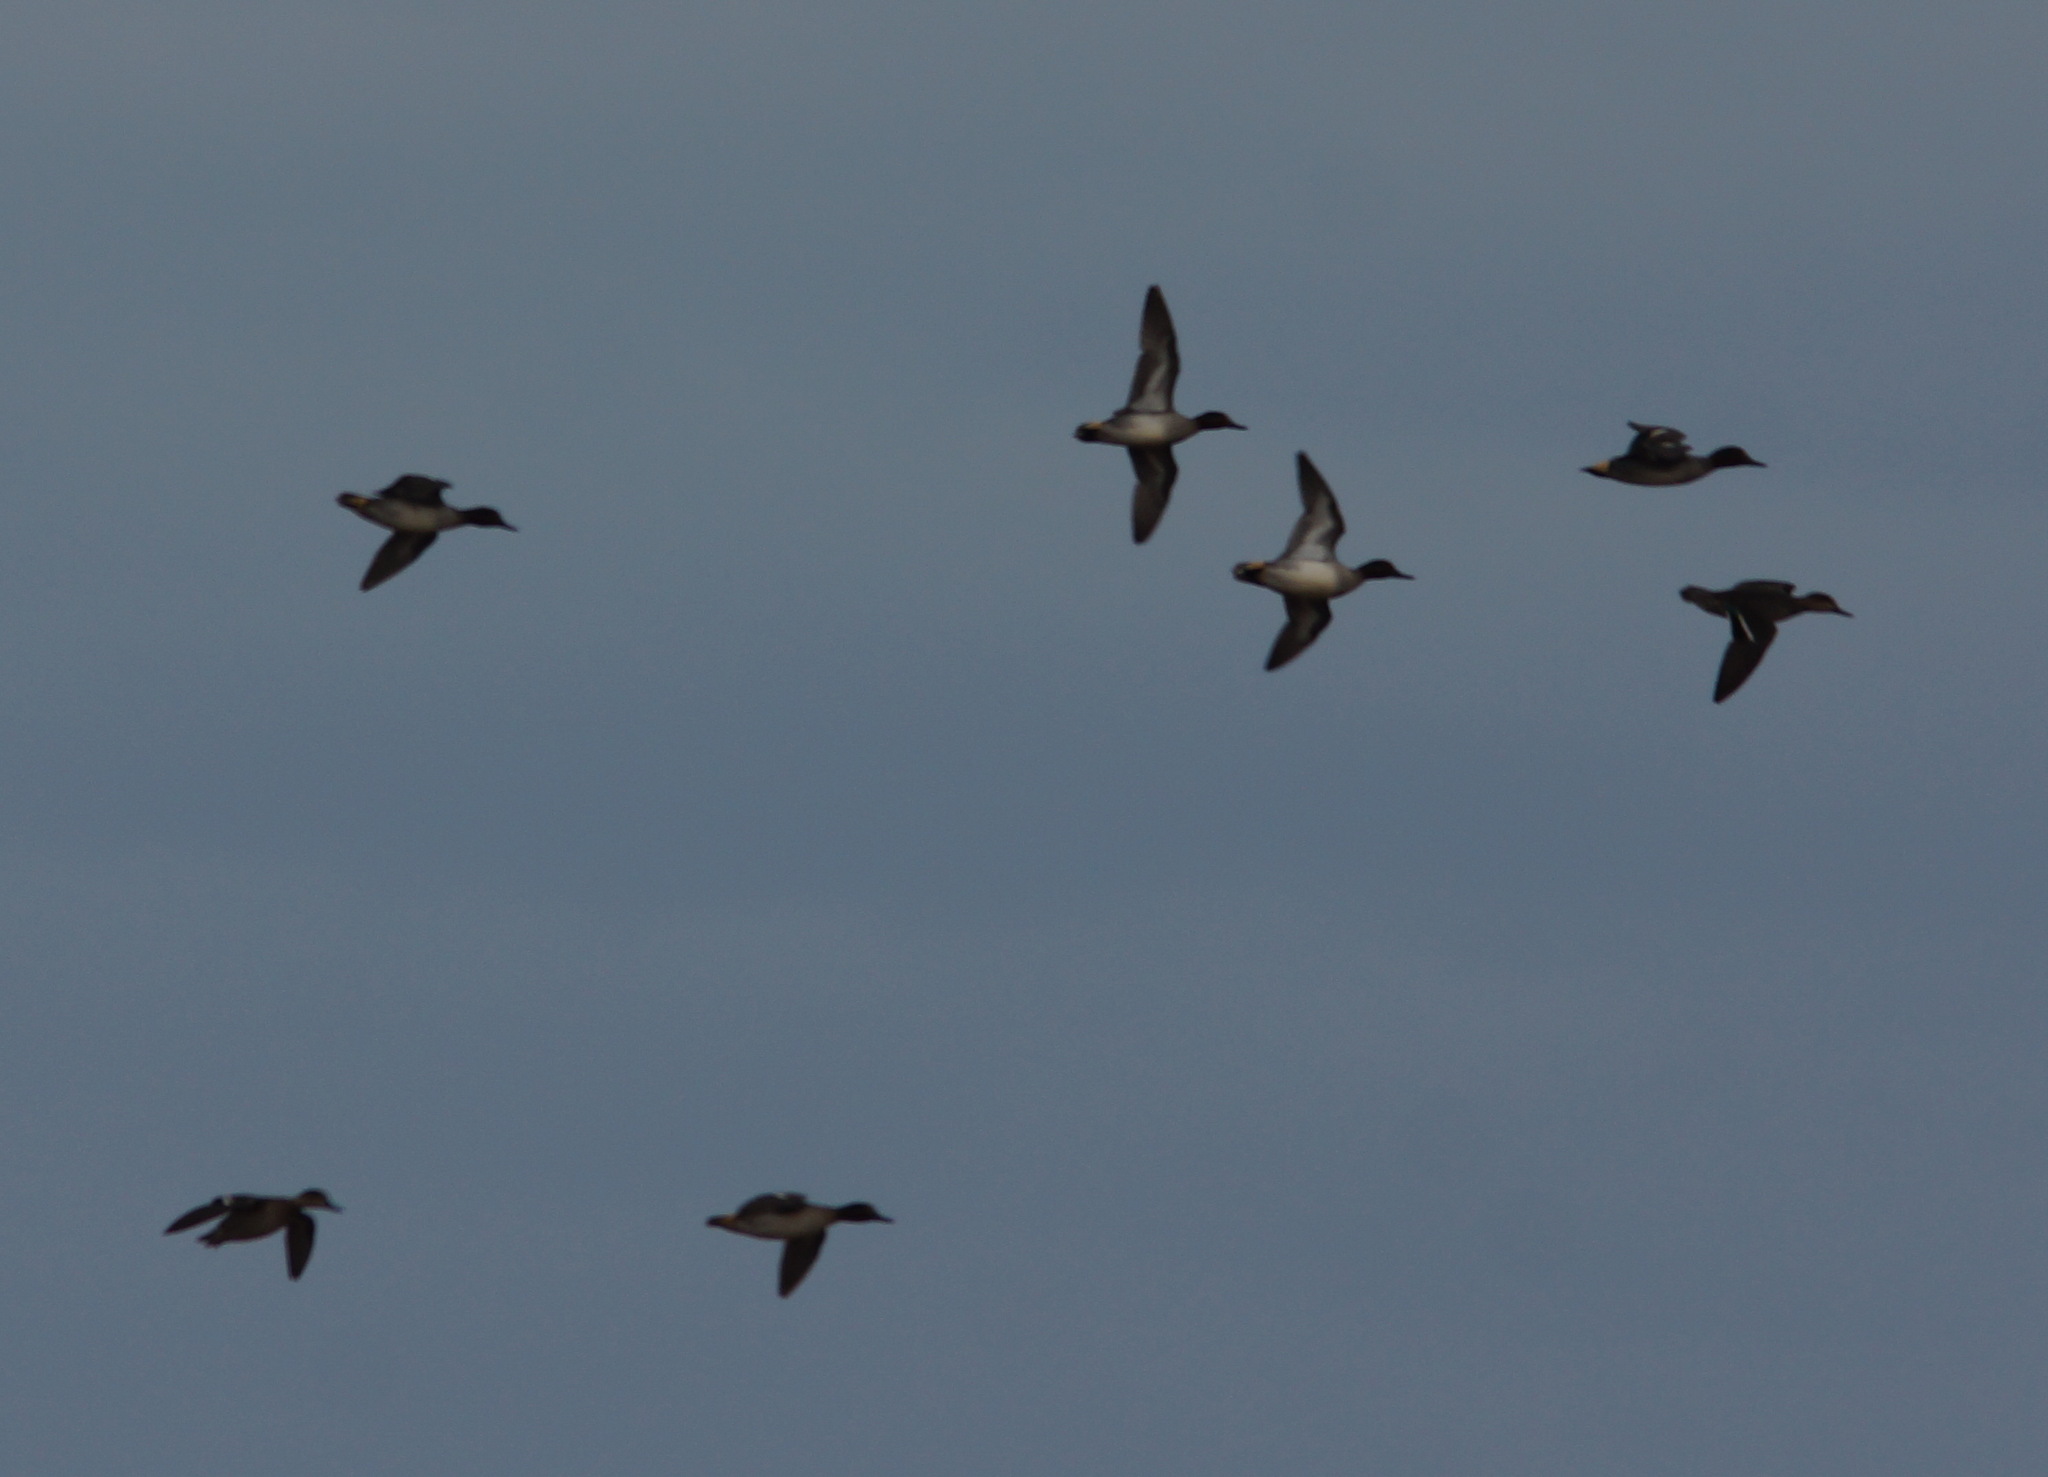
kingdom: Animalia
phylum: Chordata
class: Aves
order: Anseriformes
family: Anatidae
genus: Anas
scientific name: Anas crecca
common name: Eurasian teal
